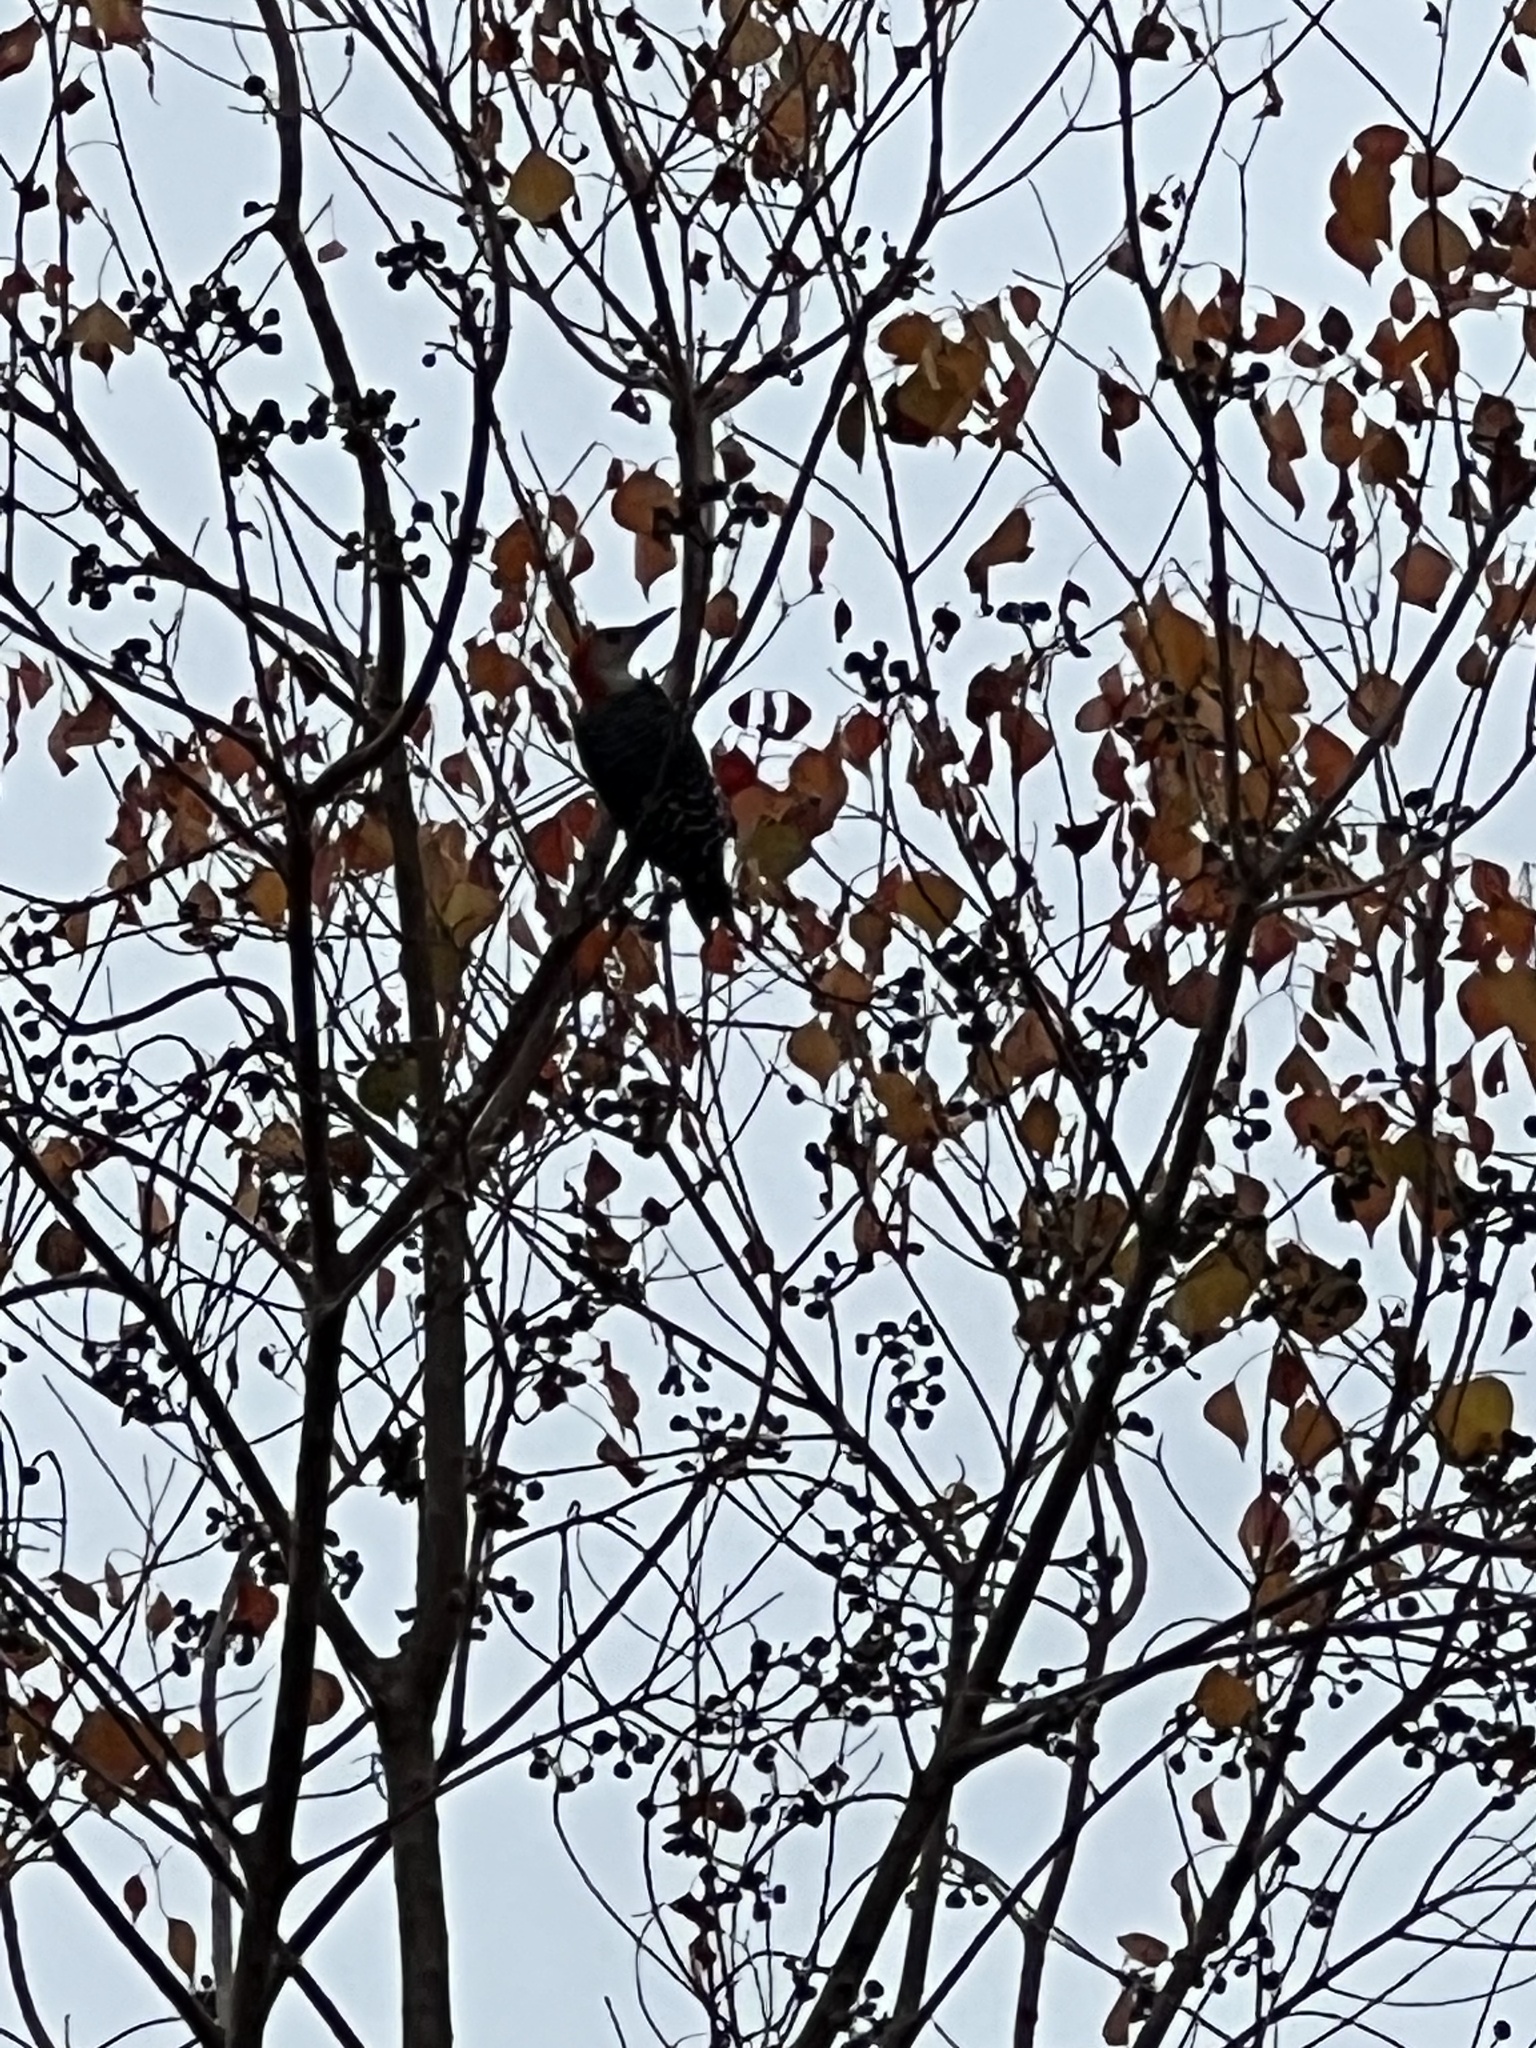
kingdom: Animalia
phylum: Chordata
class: Aves
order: Piciformes
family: Picidae
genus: Melanerpes
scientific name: Melanerpes carolinus
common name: Red-bellied woodpecker
